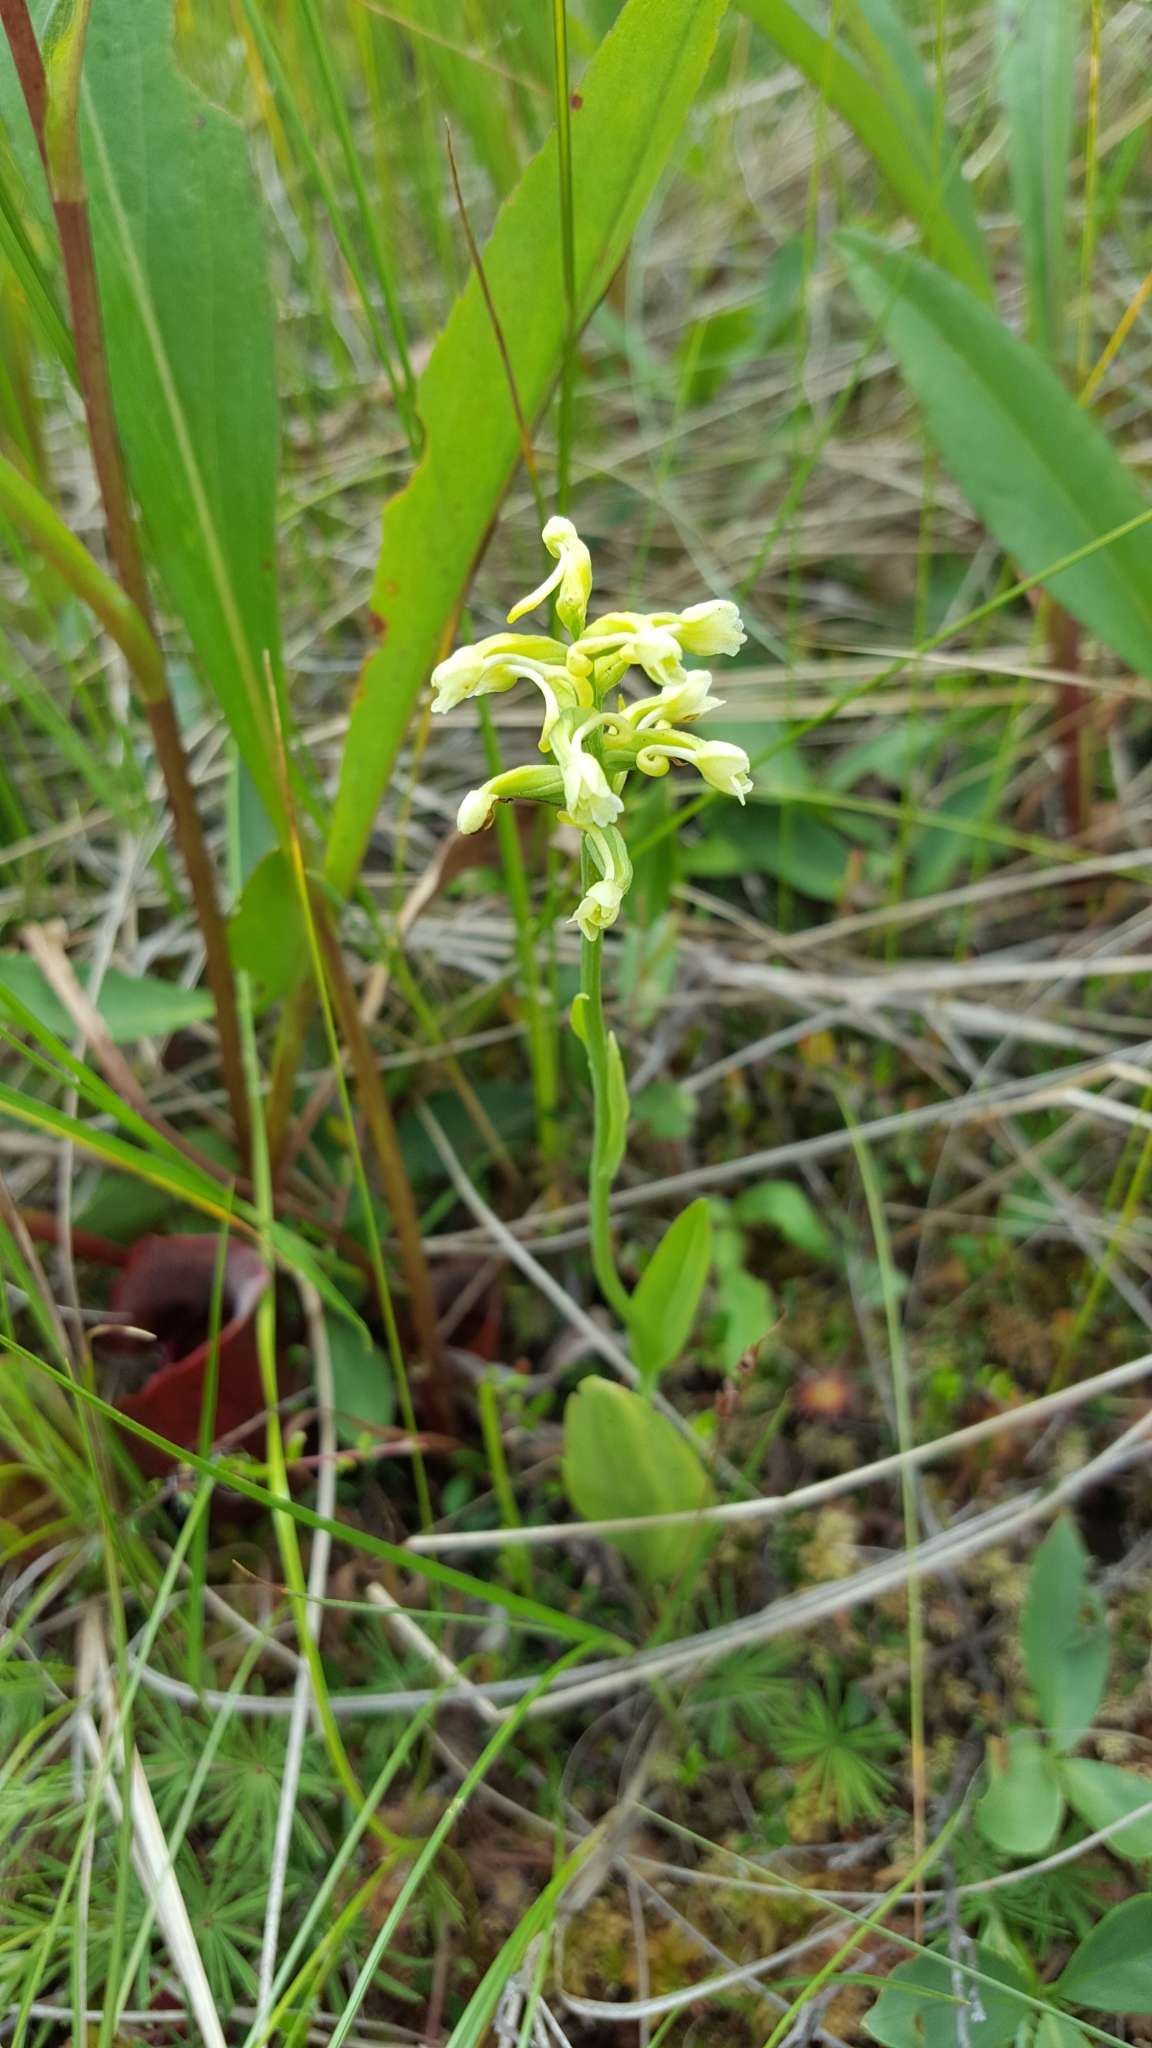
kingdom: Plantae
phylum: Tracheophyta
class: Liliopsida
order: Asparagales
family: Orchidaceae
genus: Platanthera
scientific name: Platanthera clavellata
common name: Club-spur orchid
